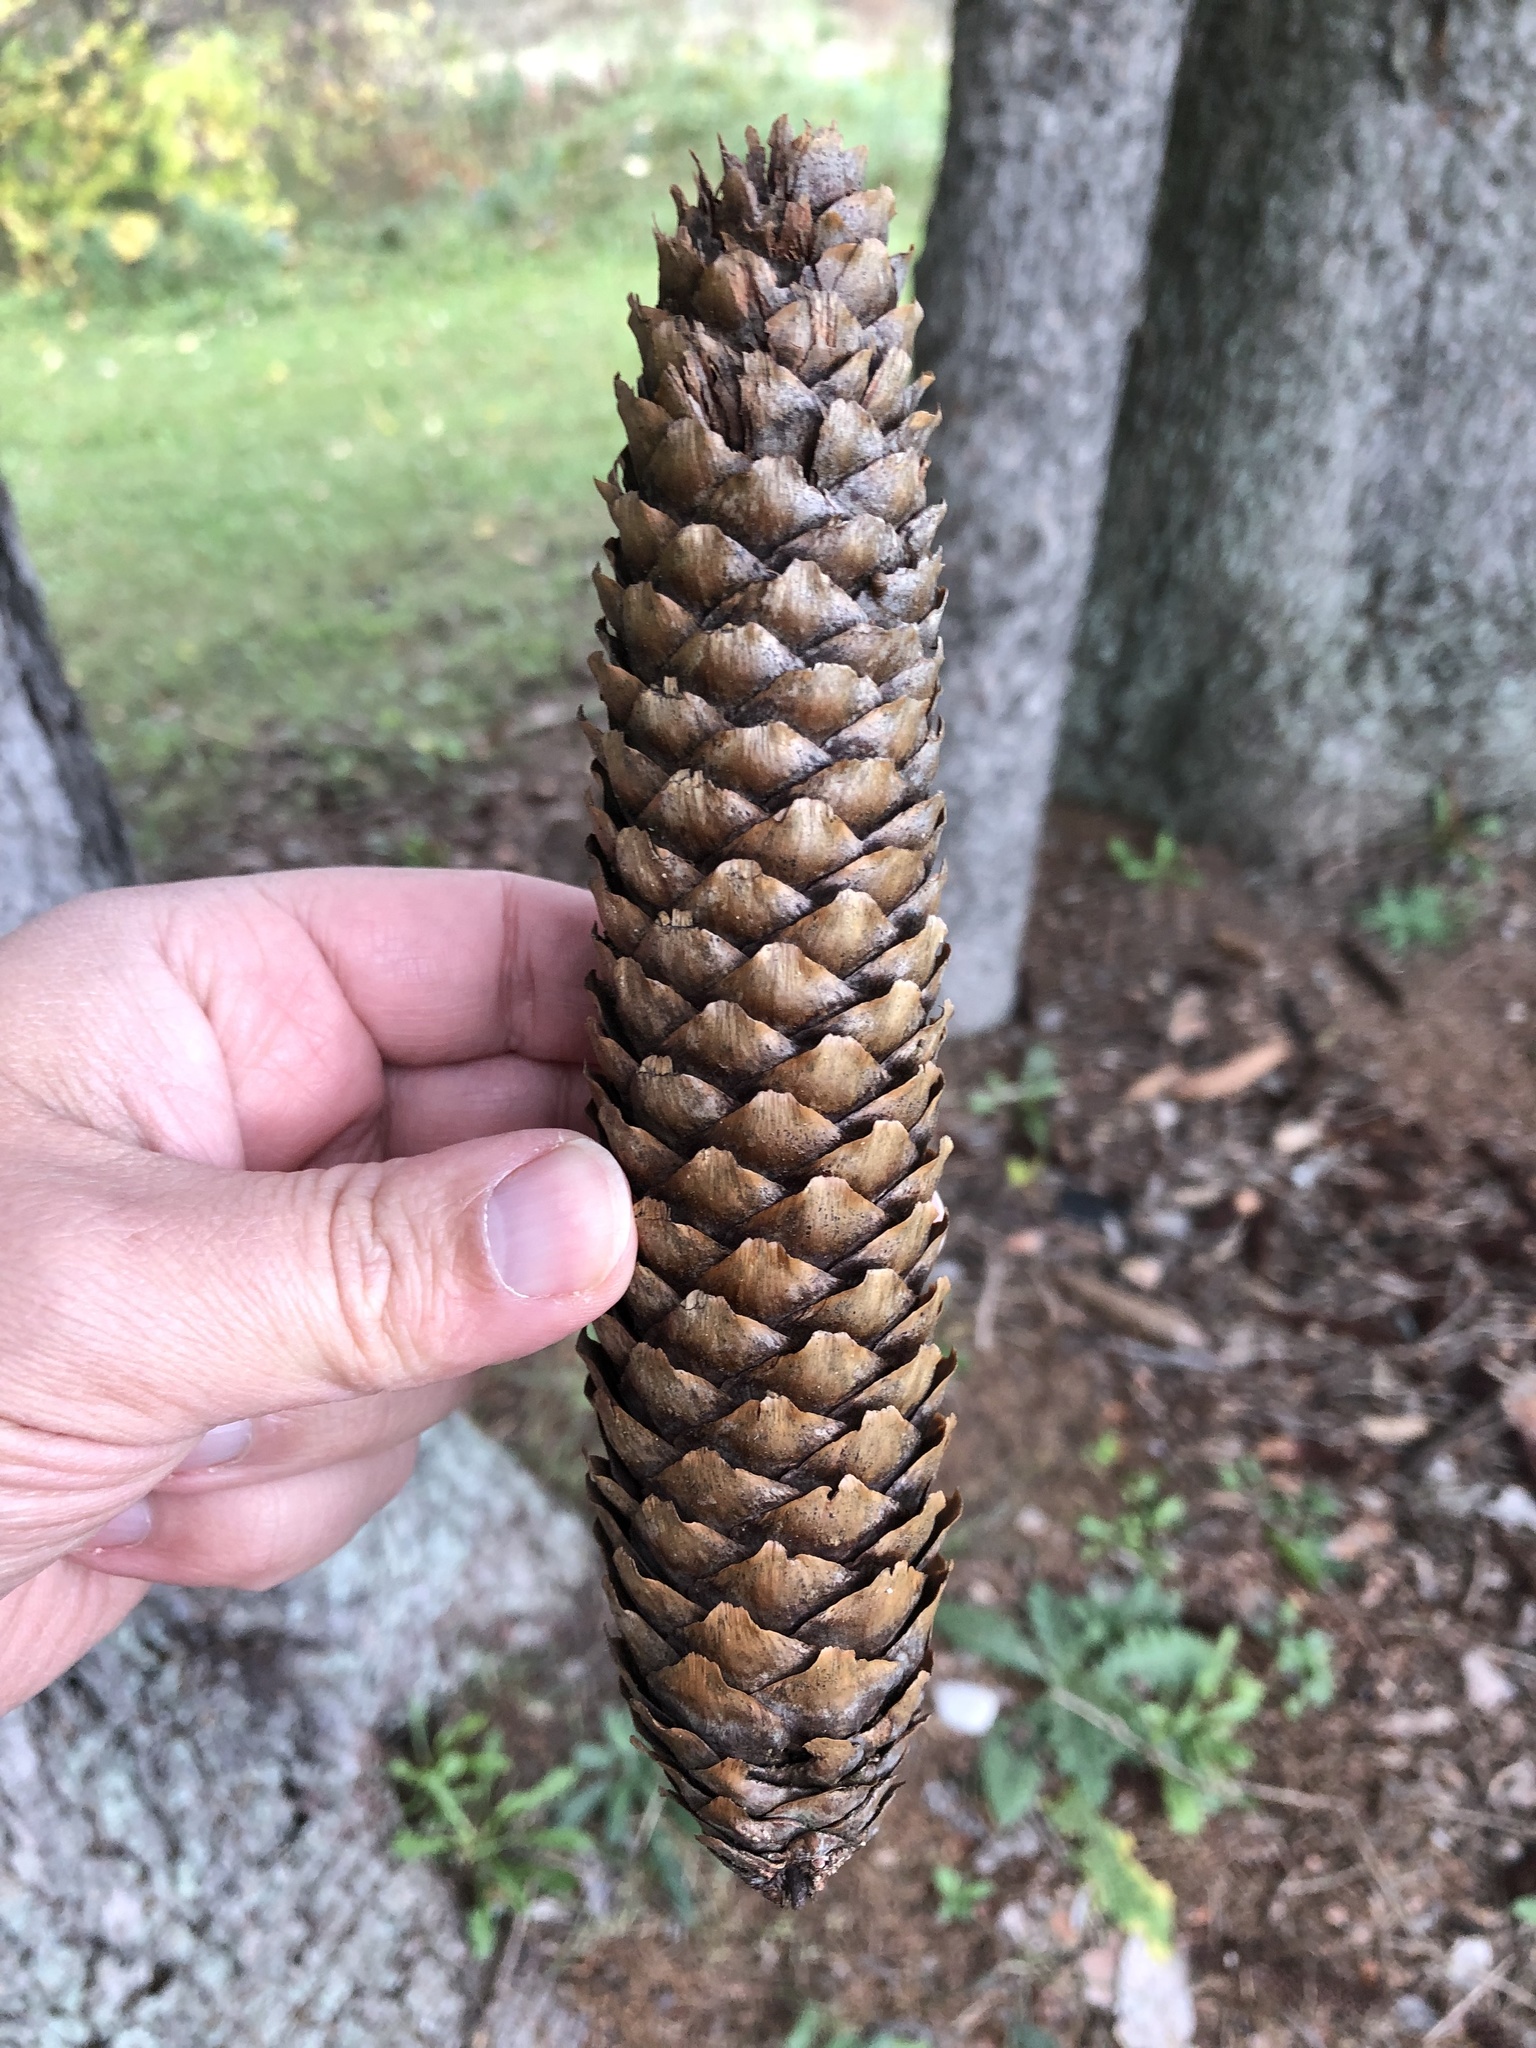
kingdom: Plantae
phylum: Tracheophyta
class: Pinopsida
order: Pinales
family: Pinaceae
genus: Picea
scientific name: Picea abies
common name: Norway spruce
